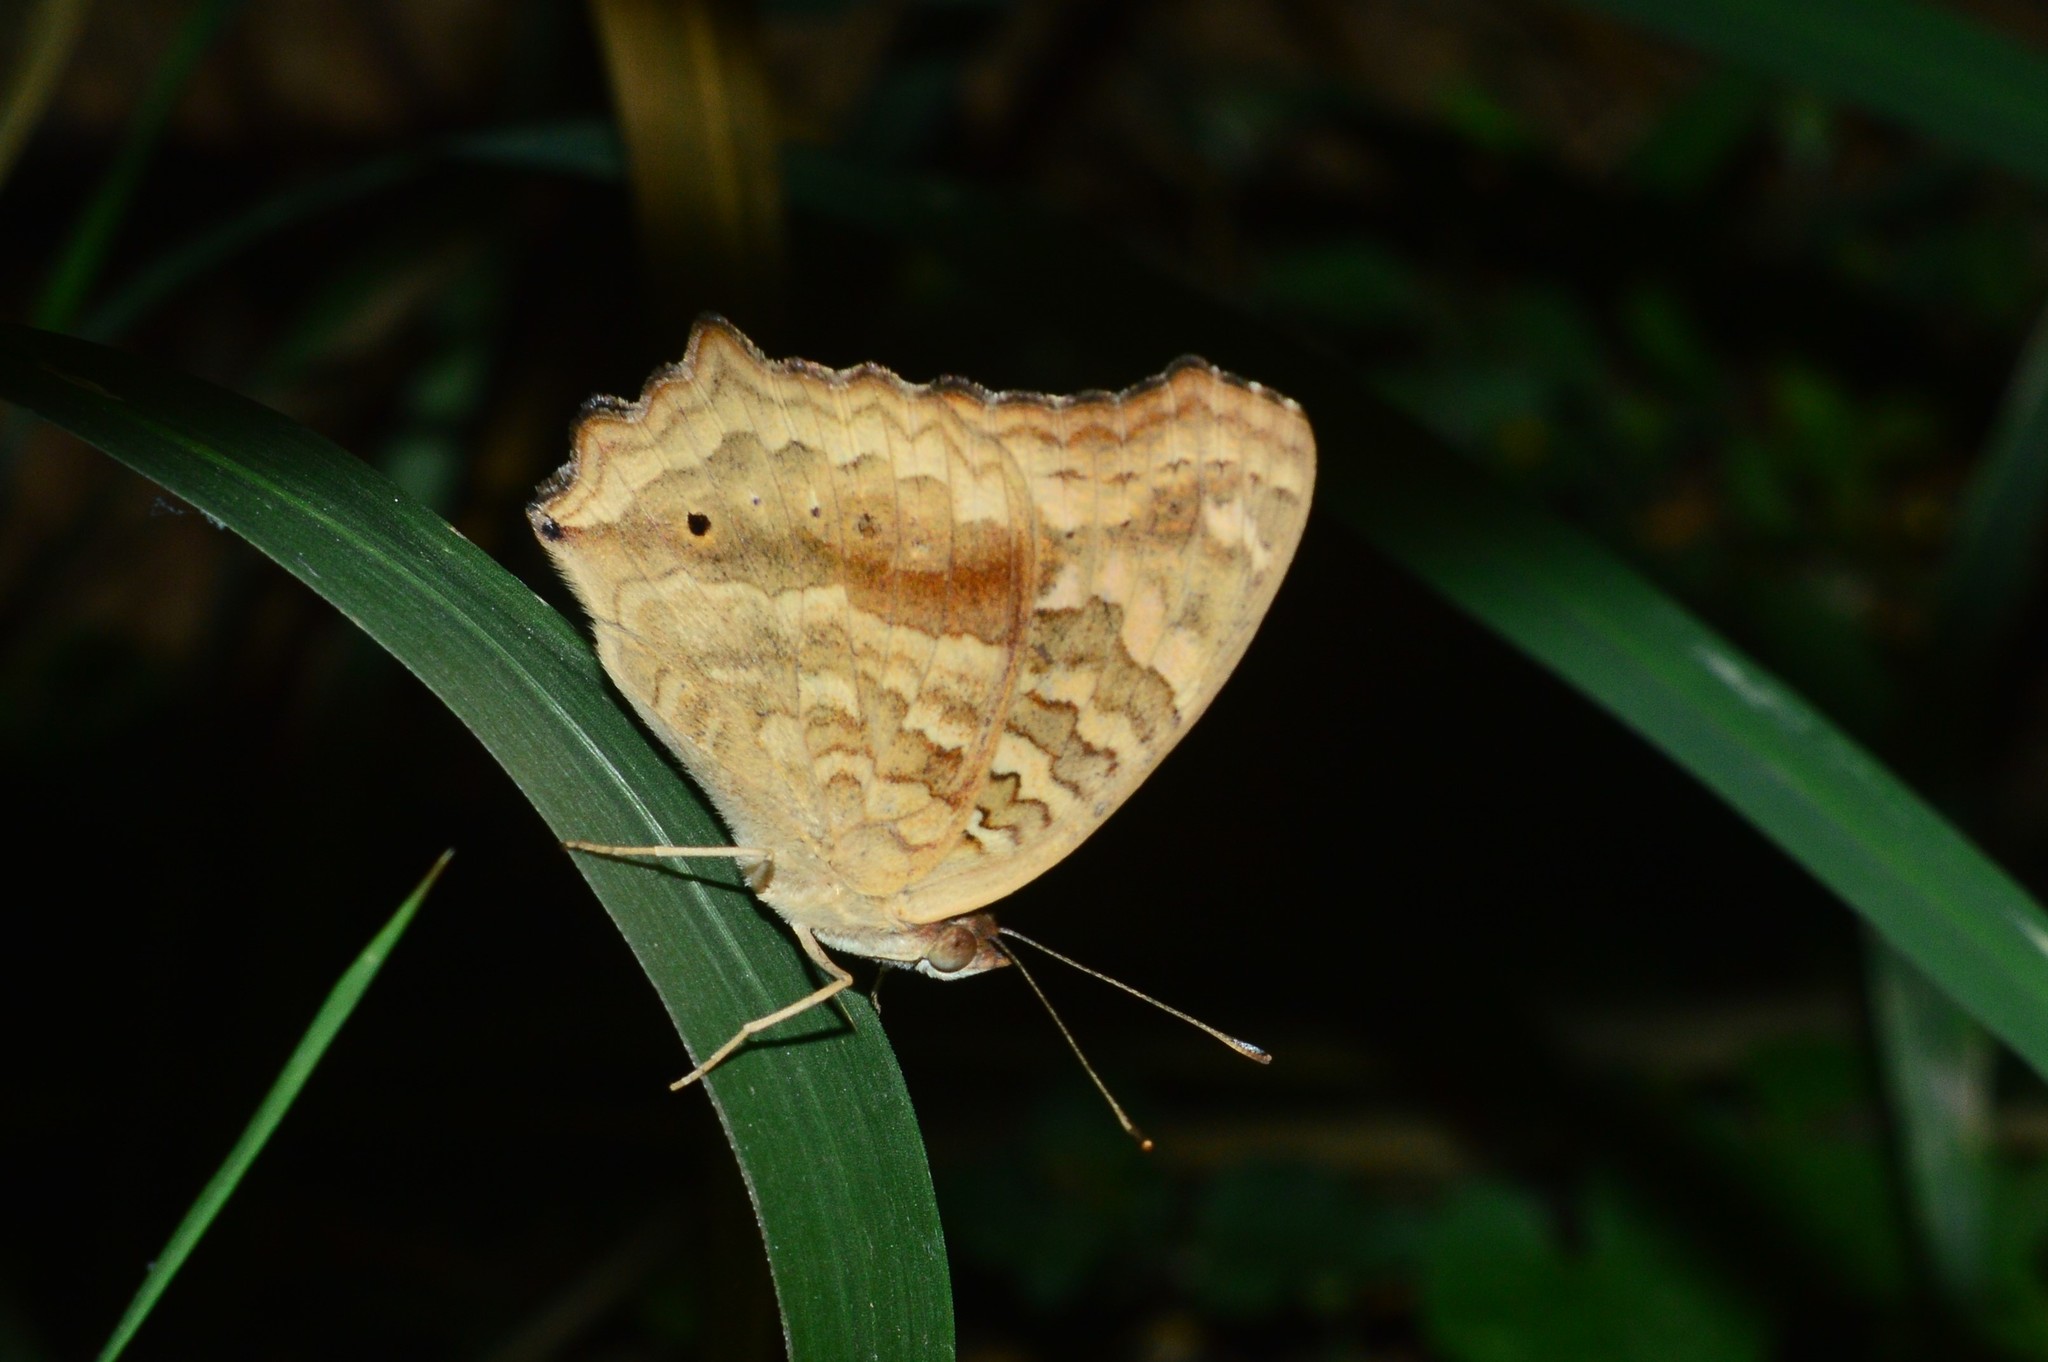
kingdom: Animalia
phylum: Arthropoda
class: Insecta
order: Lepidoptera
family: Nymphalidae
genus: Junonia
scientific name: Junonia lemonias
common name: Lemon pansy
